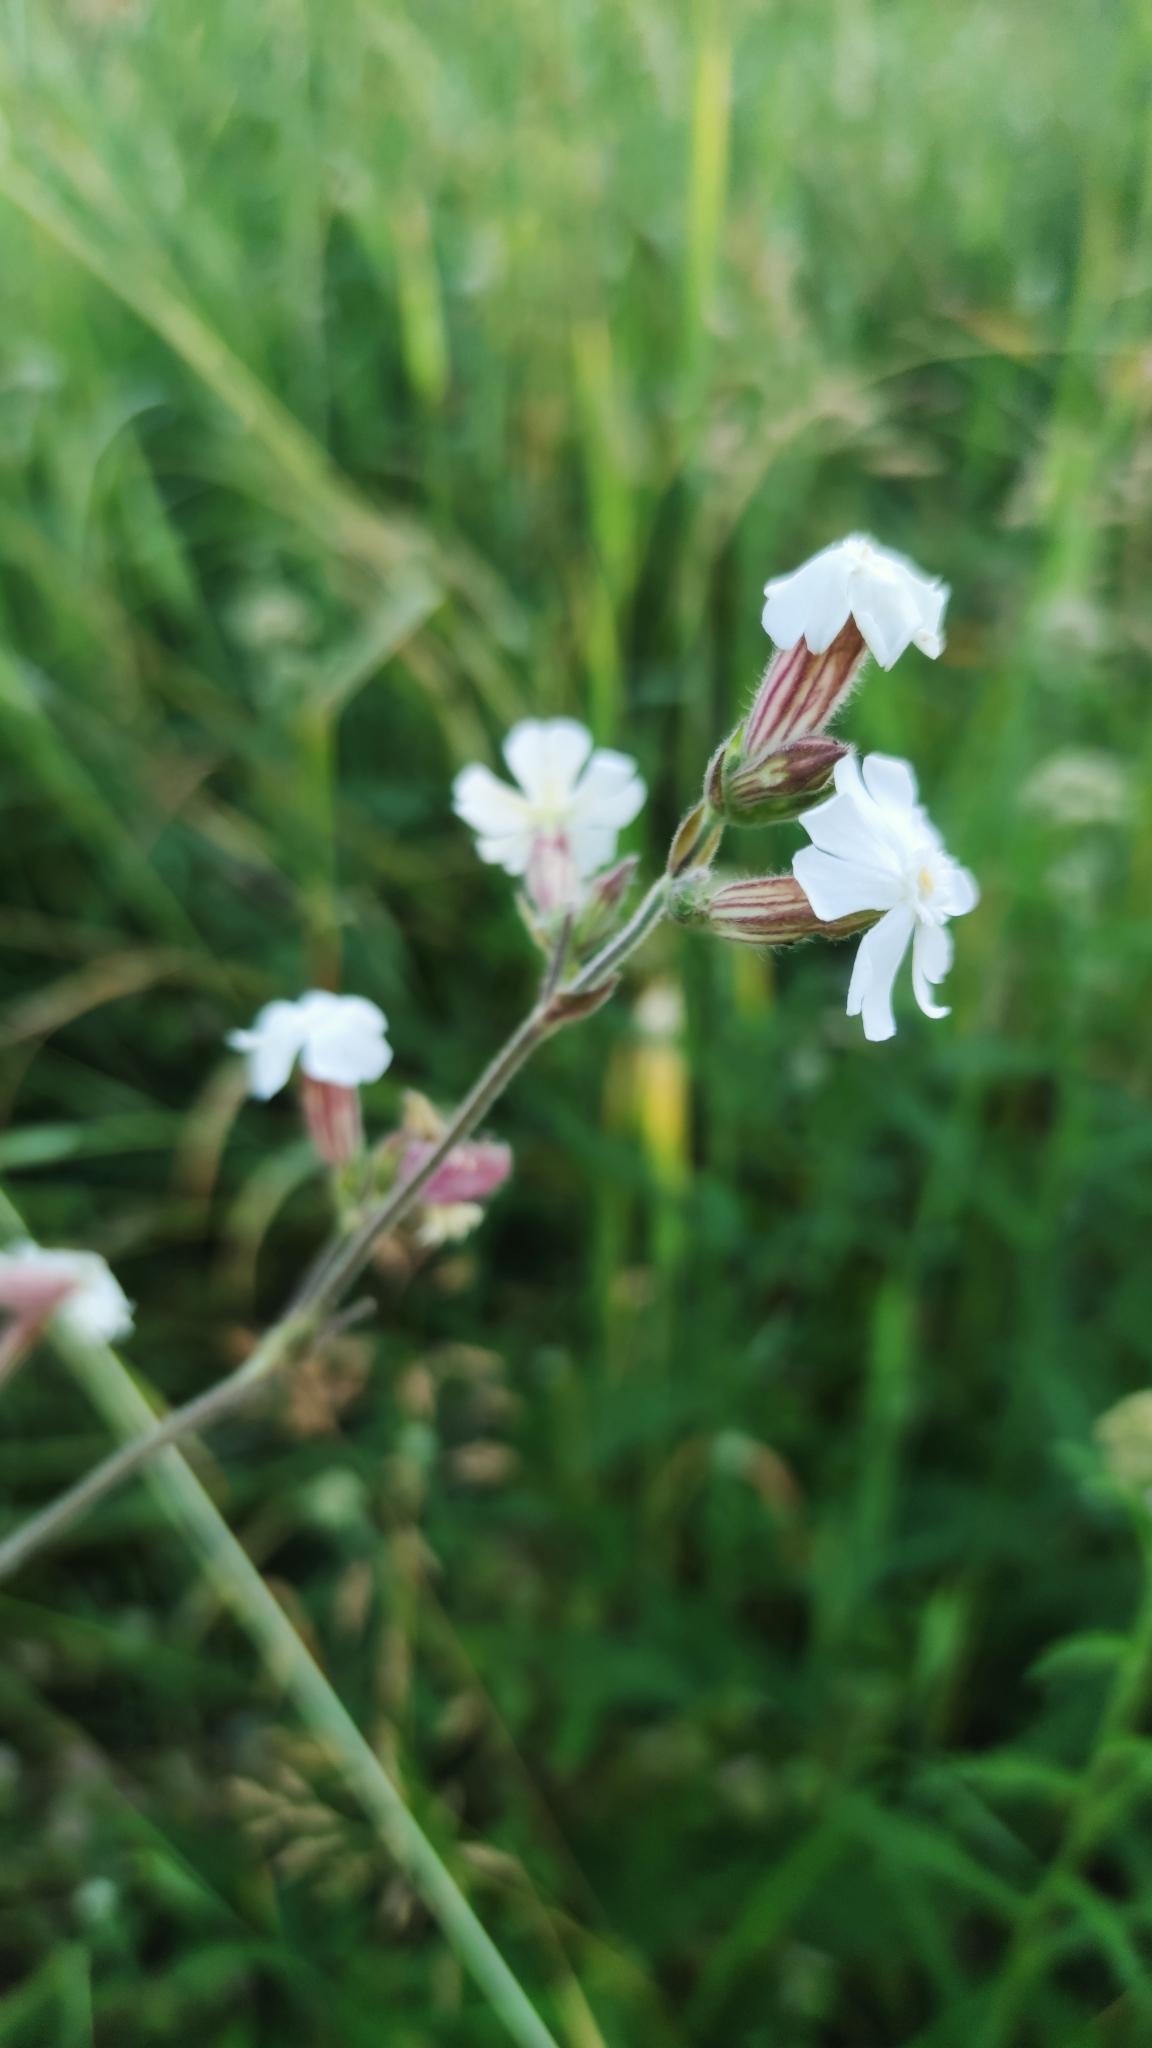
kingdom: Plantae
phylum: Tracheophyta
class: Magnoliopsida
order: Caryophyllales
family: Caryophyllaceae
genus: Silene
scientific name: Silene latifolia
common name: White campion
